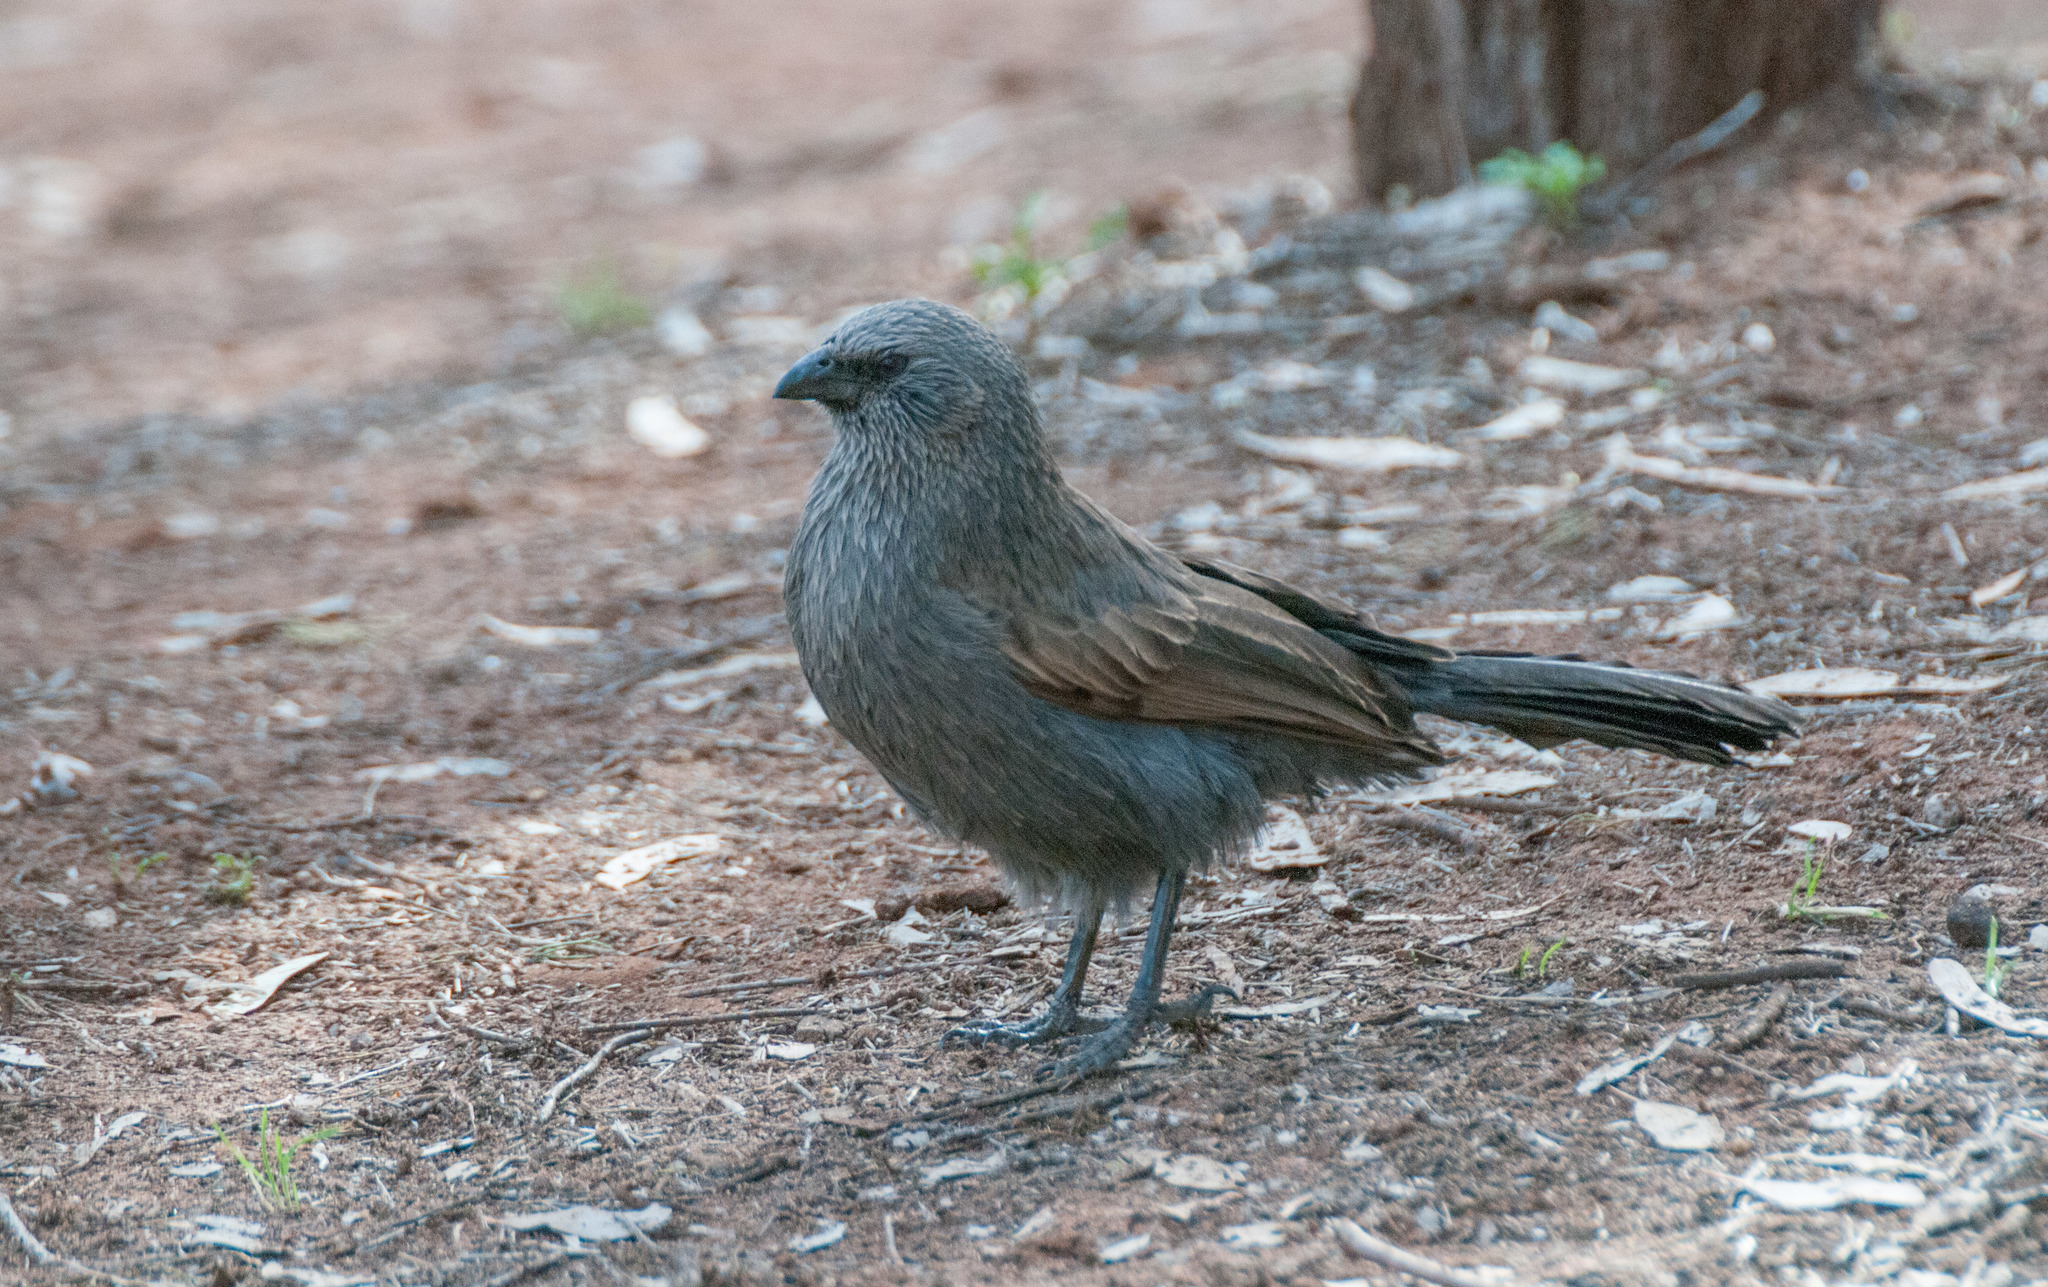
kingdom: Animalia
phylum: Chordata
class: Aves
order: Passeriformes
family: Corcoracidae
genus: Struthidea
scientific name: Struthidea cinerea
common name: Apostlebird
